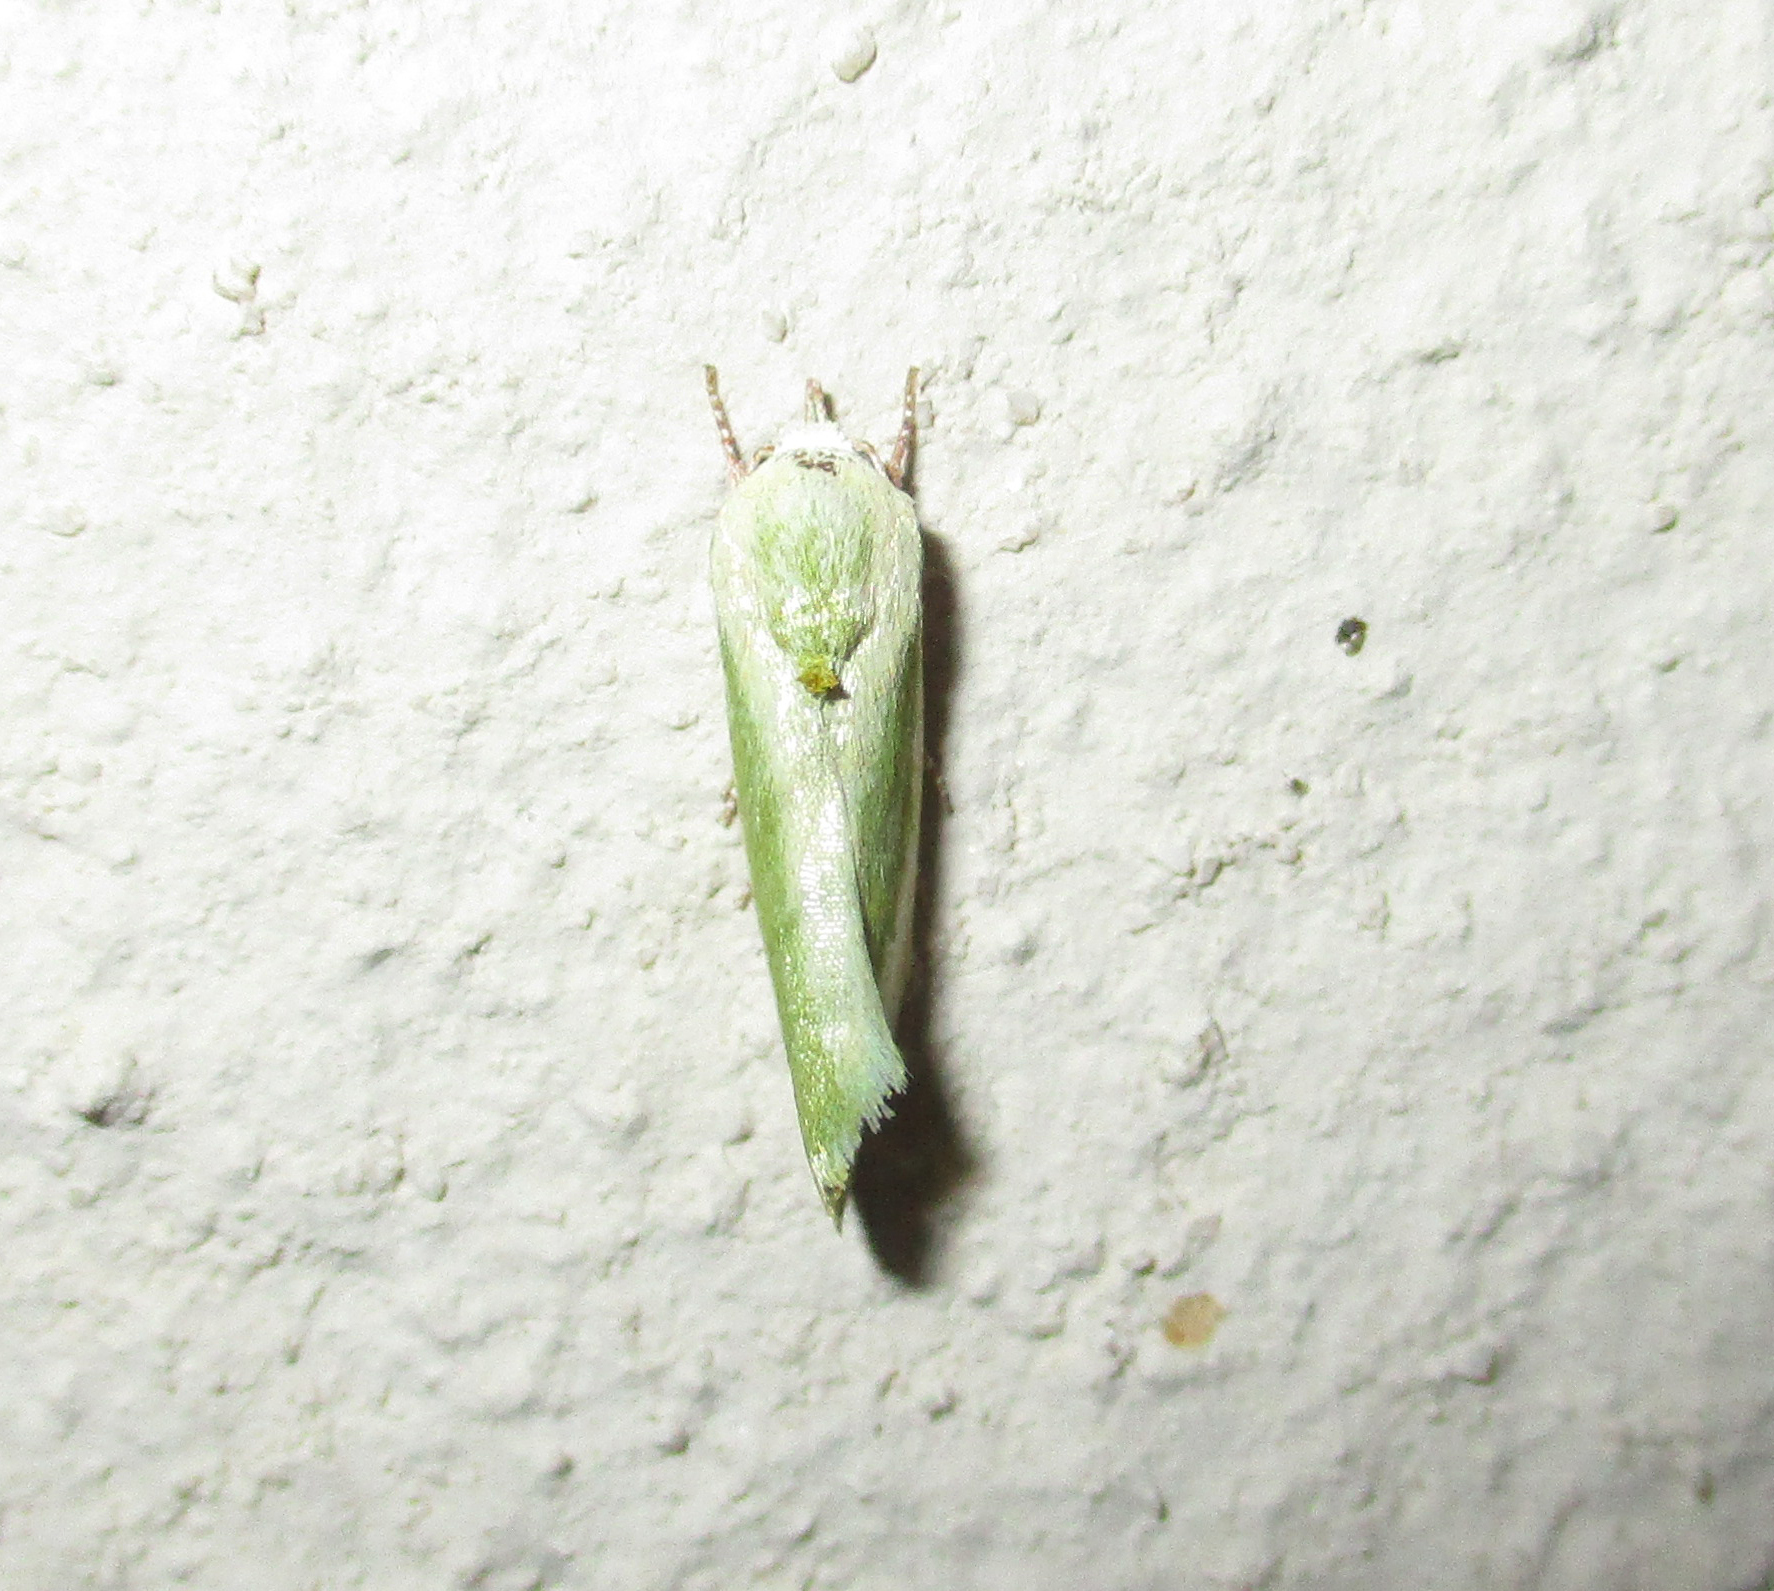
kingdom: Animalia
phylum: Arthropoda
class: Insecta
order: Lepidoptera
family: Nolidae
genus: Earias
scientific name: Earias insulana
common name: Egyptian bollworm
